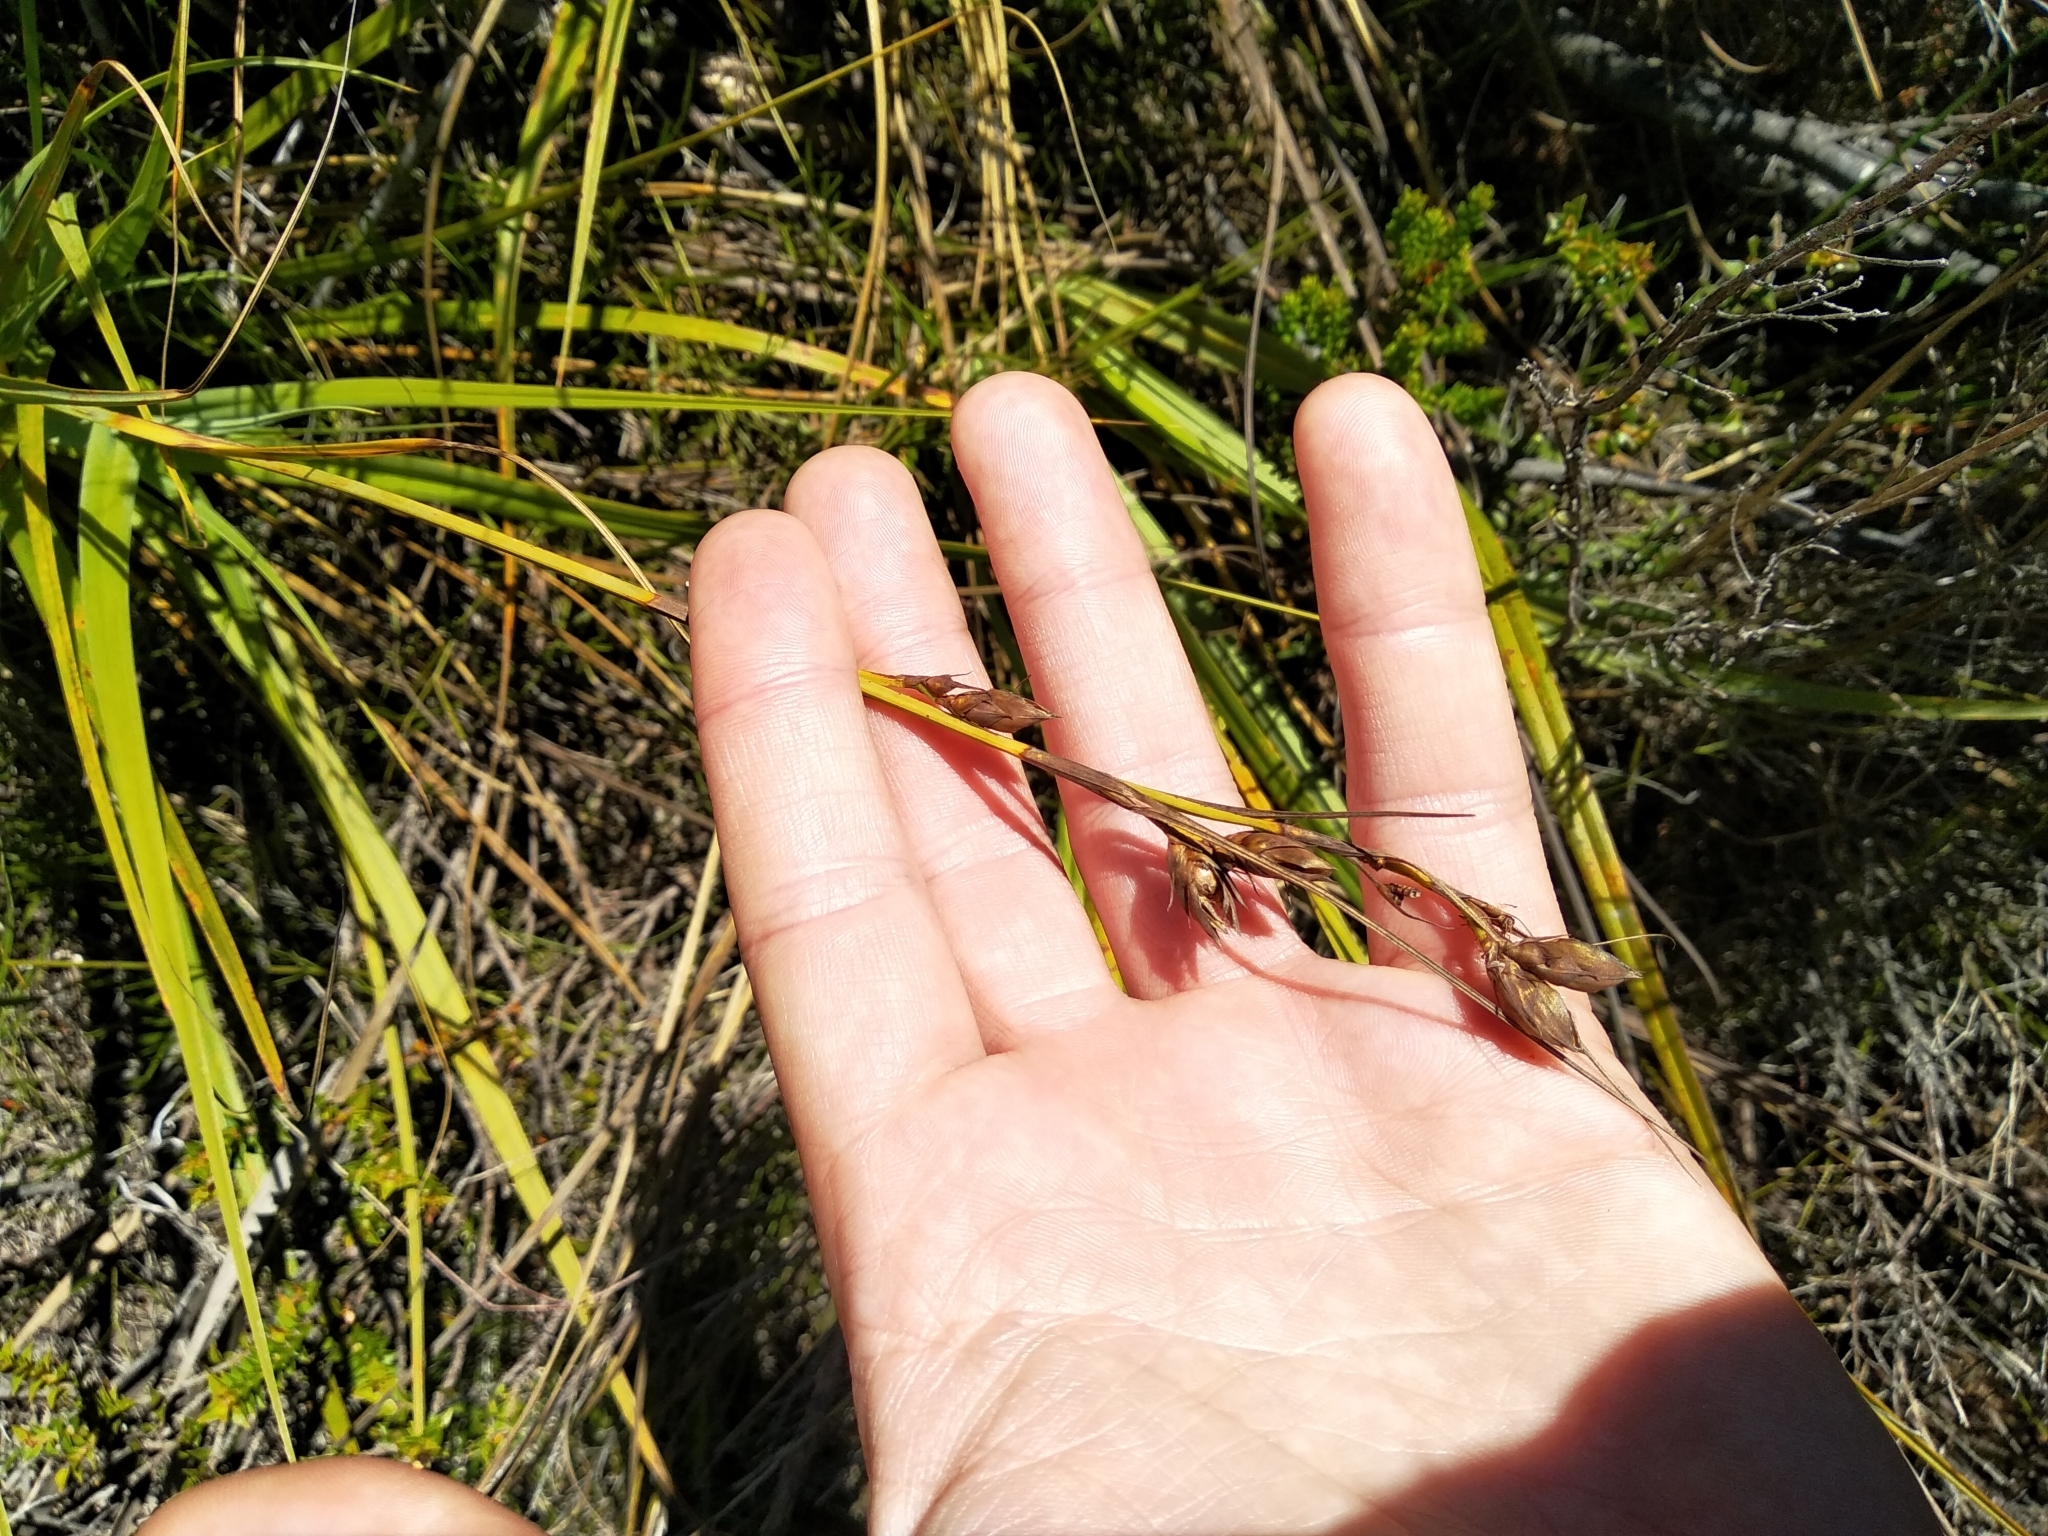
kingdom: Plantae
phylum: Tracheophyta
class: Liliopsida
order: Poales
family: Cyperaceae
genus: Tetraria
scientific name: Tetraria eximia
